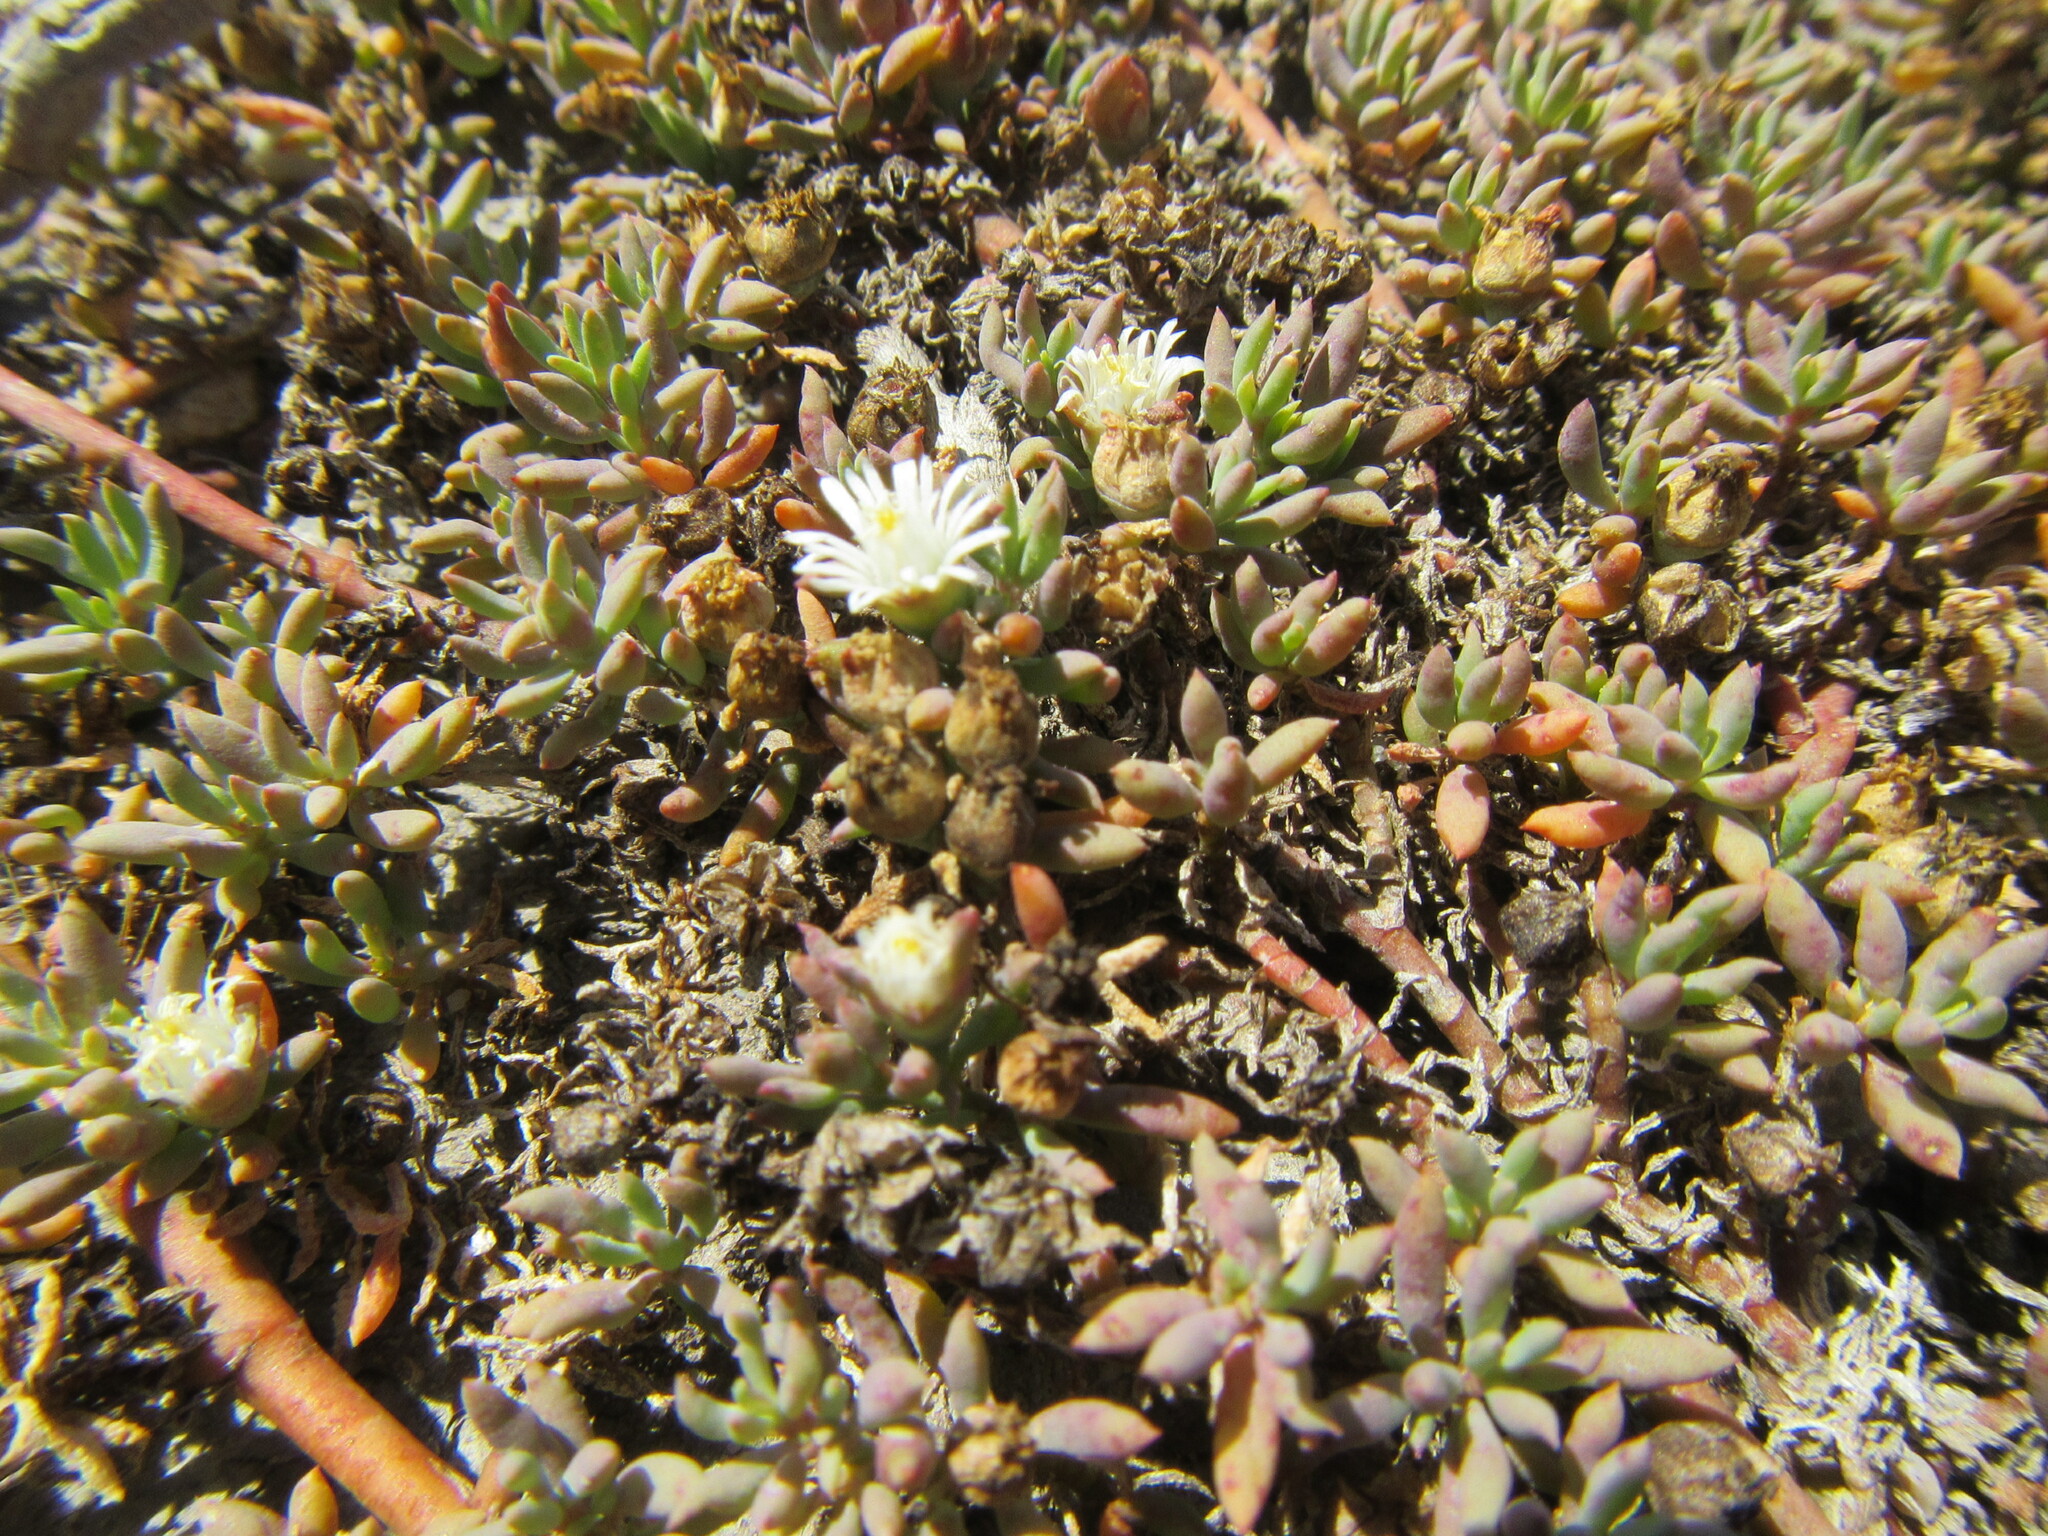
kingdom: Plantae
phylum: Tracheophyta
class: Magnoliopsida
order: Caryophyllales
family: Aizoaceae
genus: Mesembryanthemum
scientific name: Mesembryanthemum parviflorum
